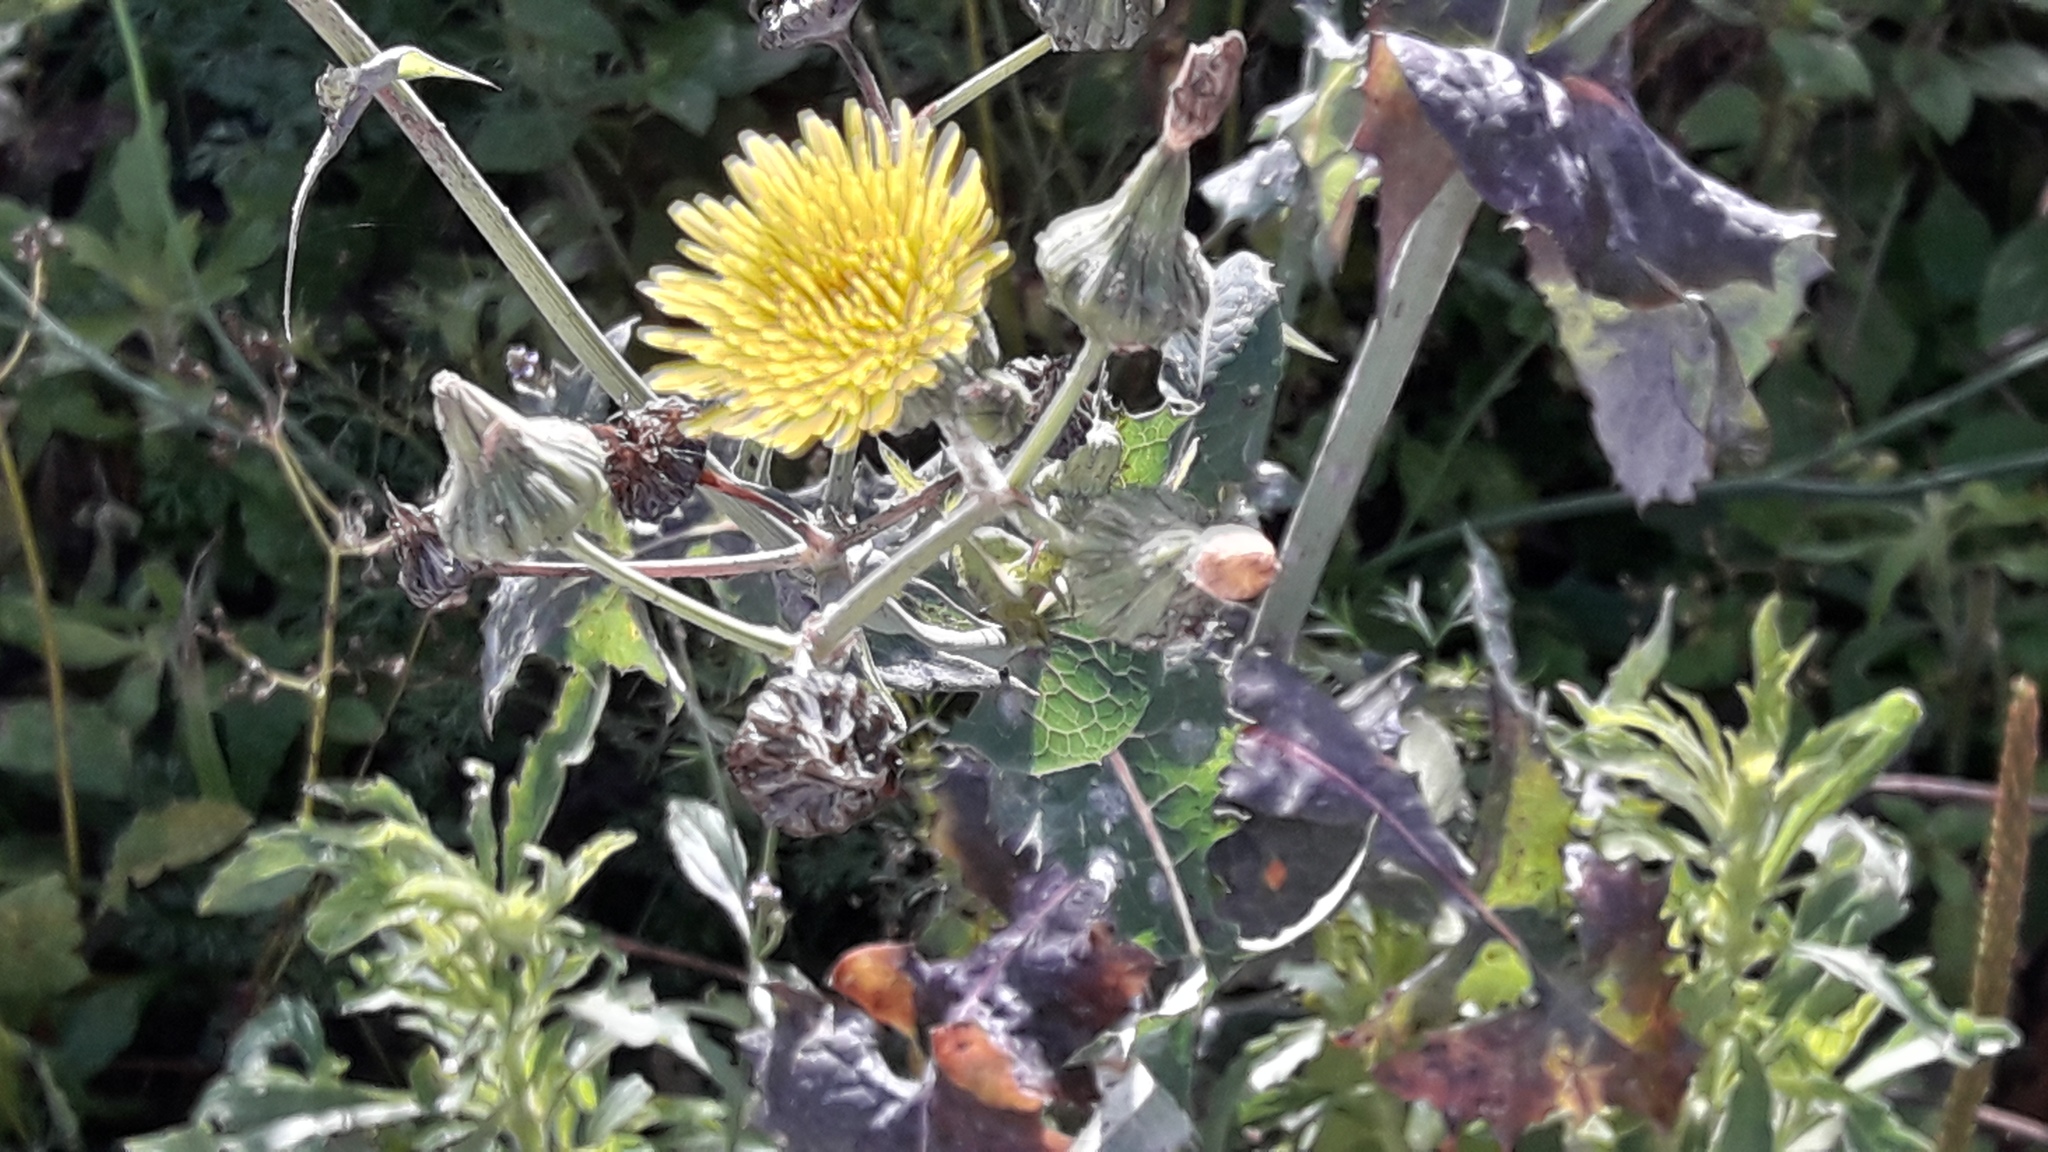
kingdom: Plantae
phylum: Tracheophyta
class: Magnoliopsida
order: Asterales
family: Asteraceae
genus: Sonchus
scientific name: Sonchus oleraceus
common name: Common sowthistle
